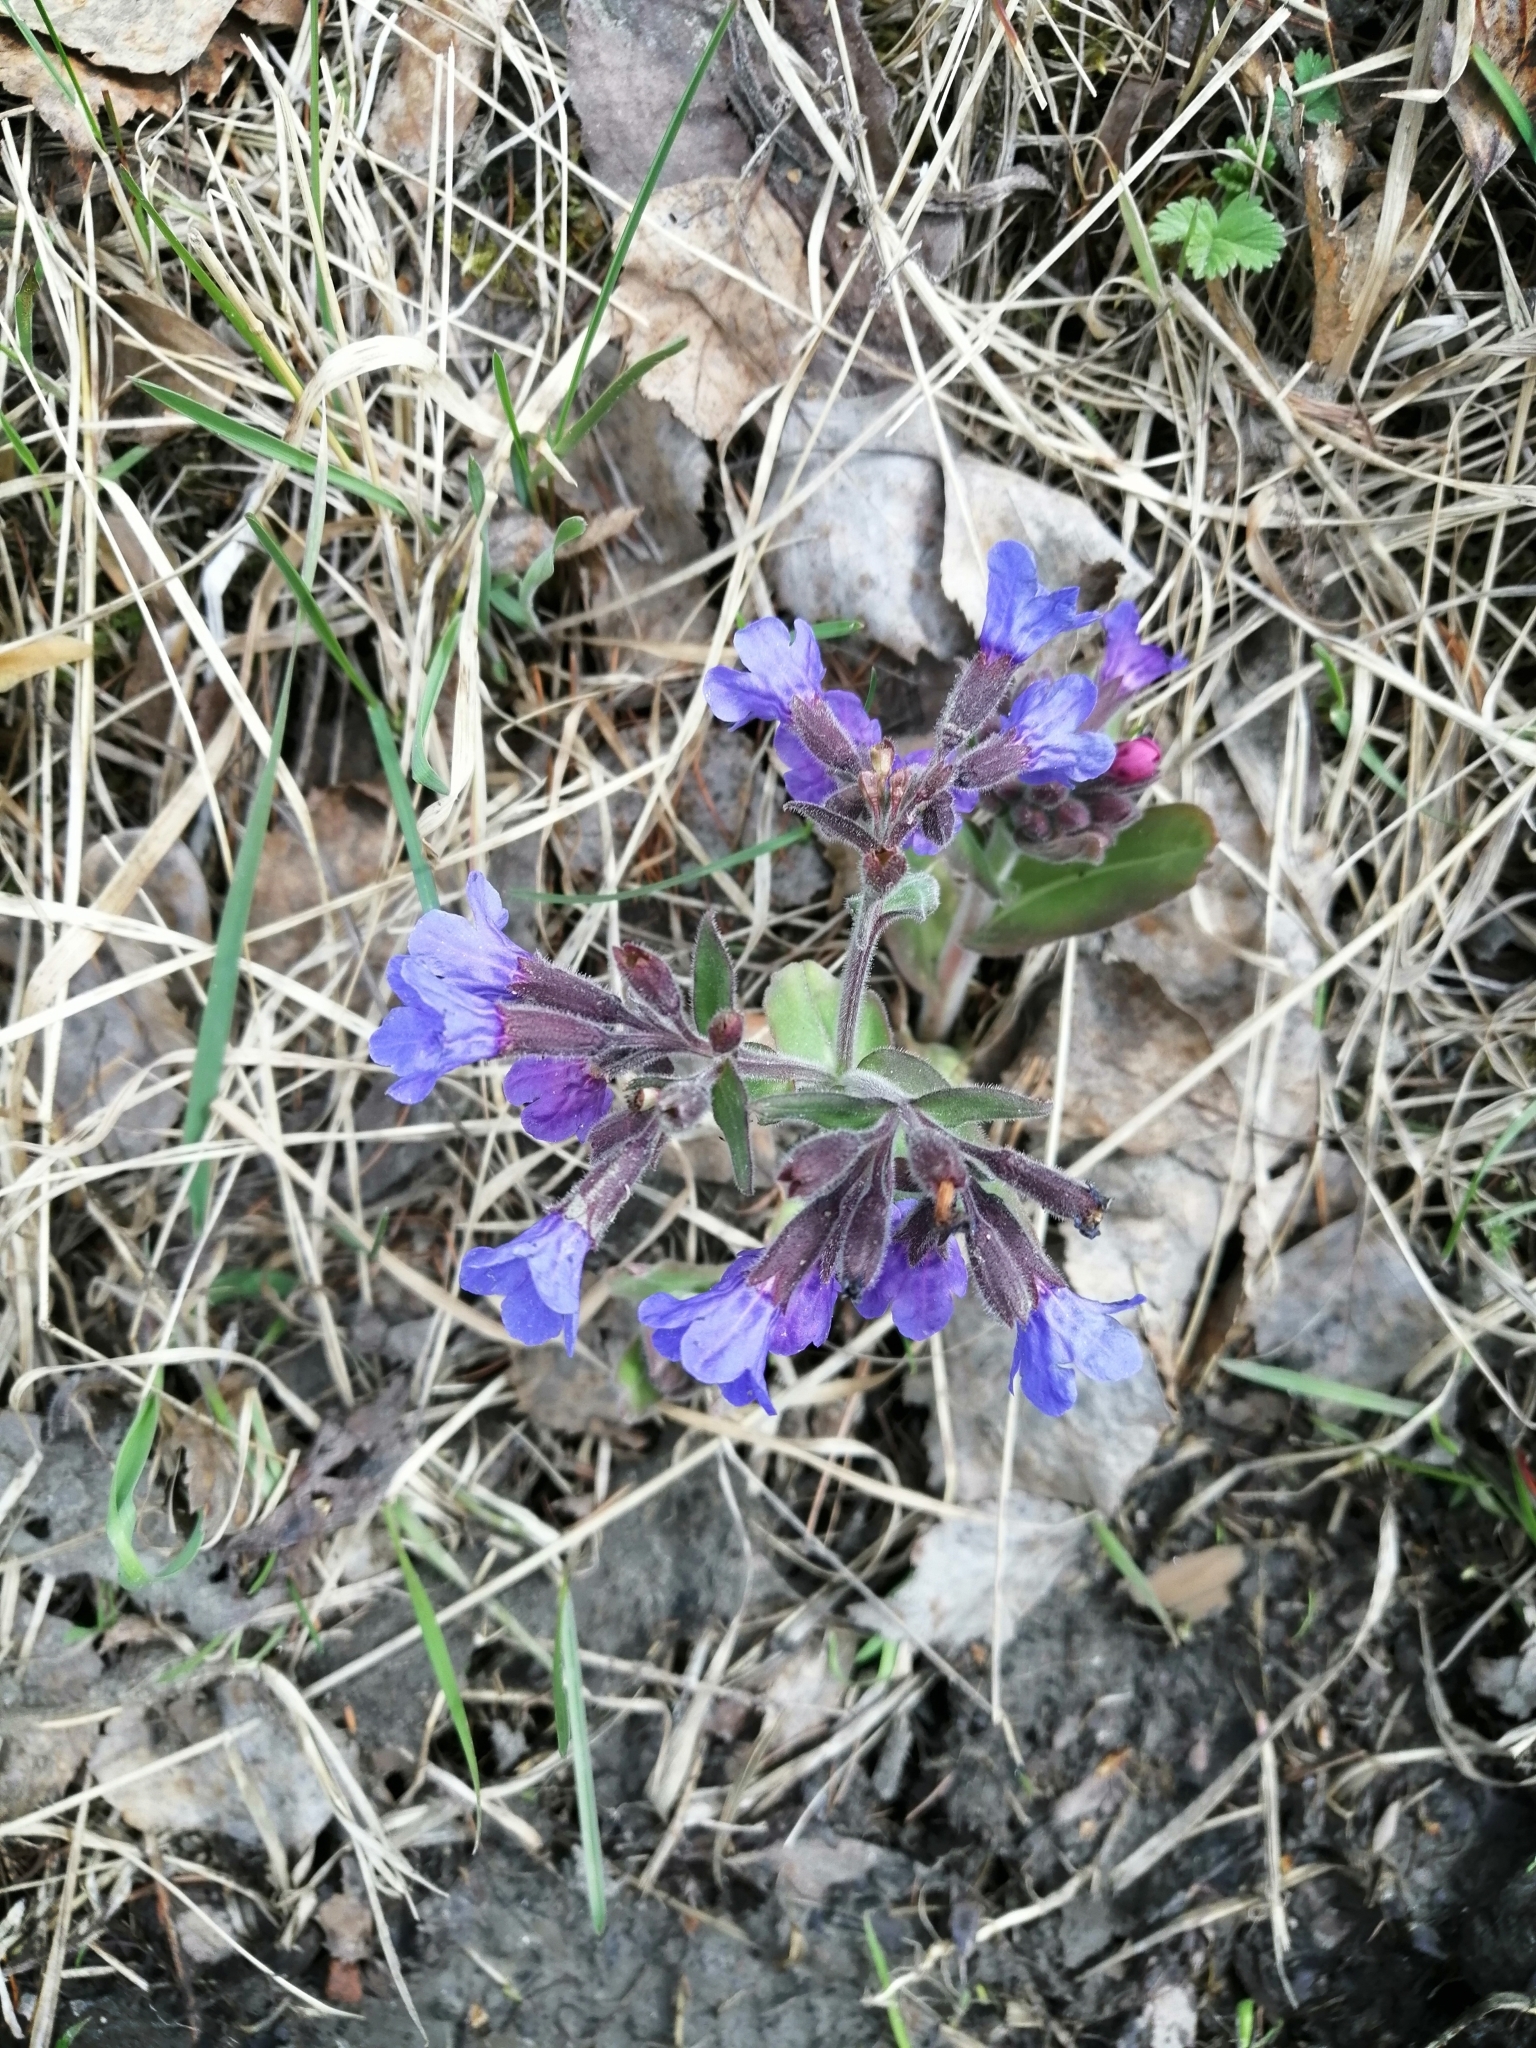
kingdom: Plantae
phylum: Tracheophyta
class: Magnoliopsida
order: Boraginales
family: Boraginaceae
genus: Pulmonaria
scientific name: Pulmonaria mollis
